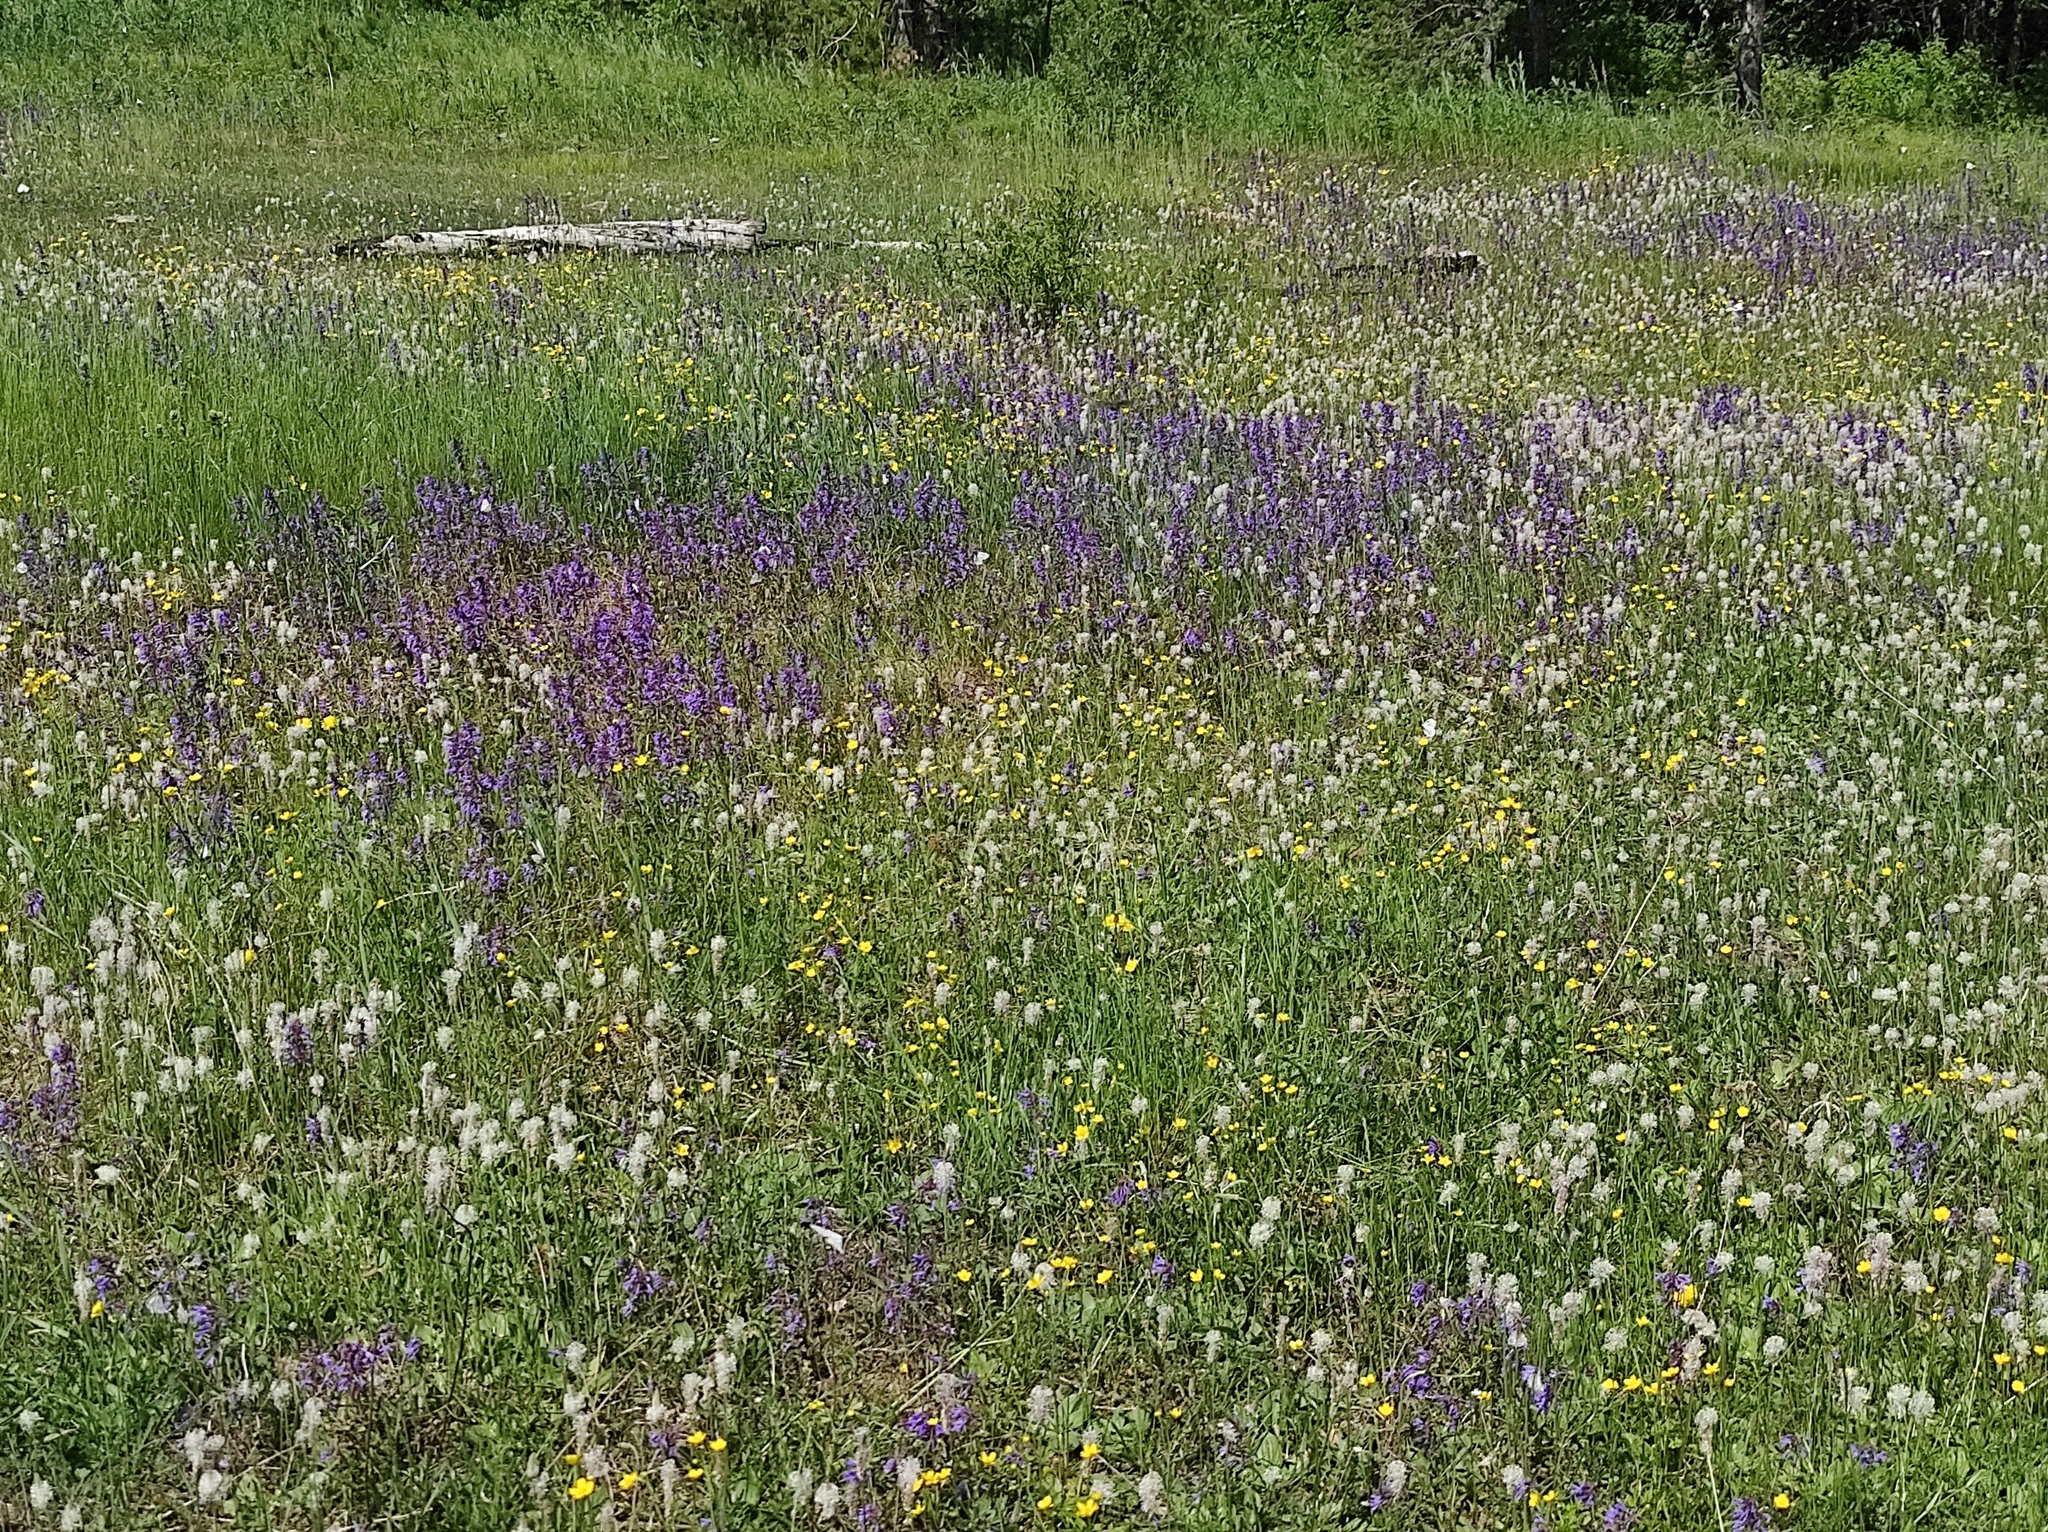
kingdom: Plantae
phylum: Tracheophyta
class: Magnoliopsida
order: Lamiales
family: Lamiaceae
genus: Dracocephalum
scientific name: Dracocephalum nutans
